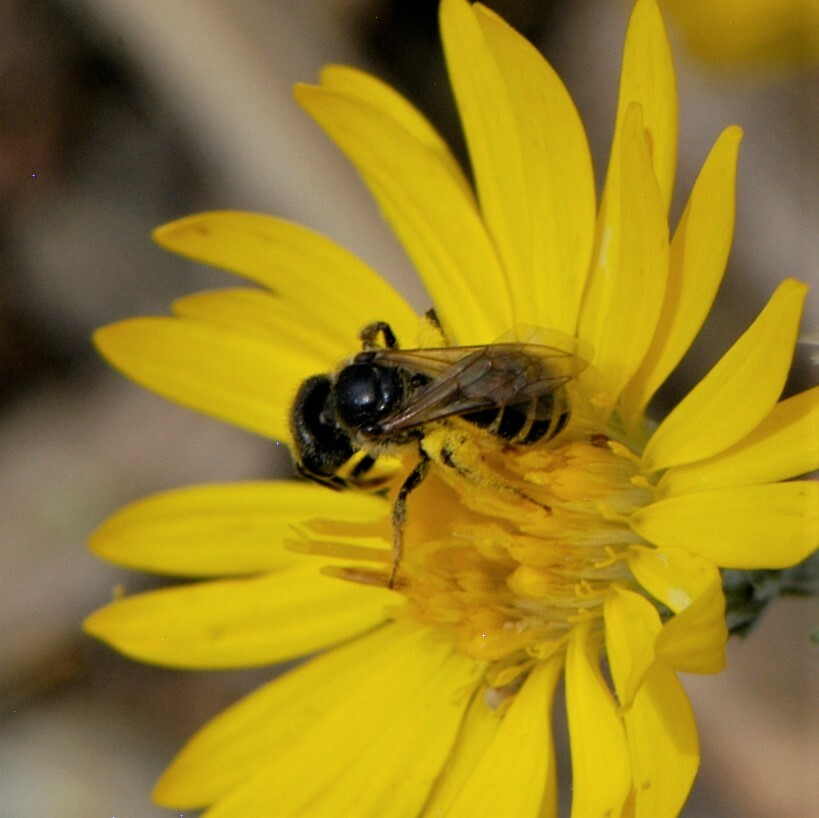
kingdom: Animalia
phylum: Arthropoda
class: Insecta
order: Hymenoptera
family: Halictidae
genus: Halictus
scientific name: Halictus ligatus
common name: Ligated furrow bee
